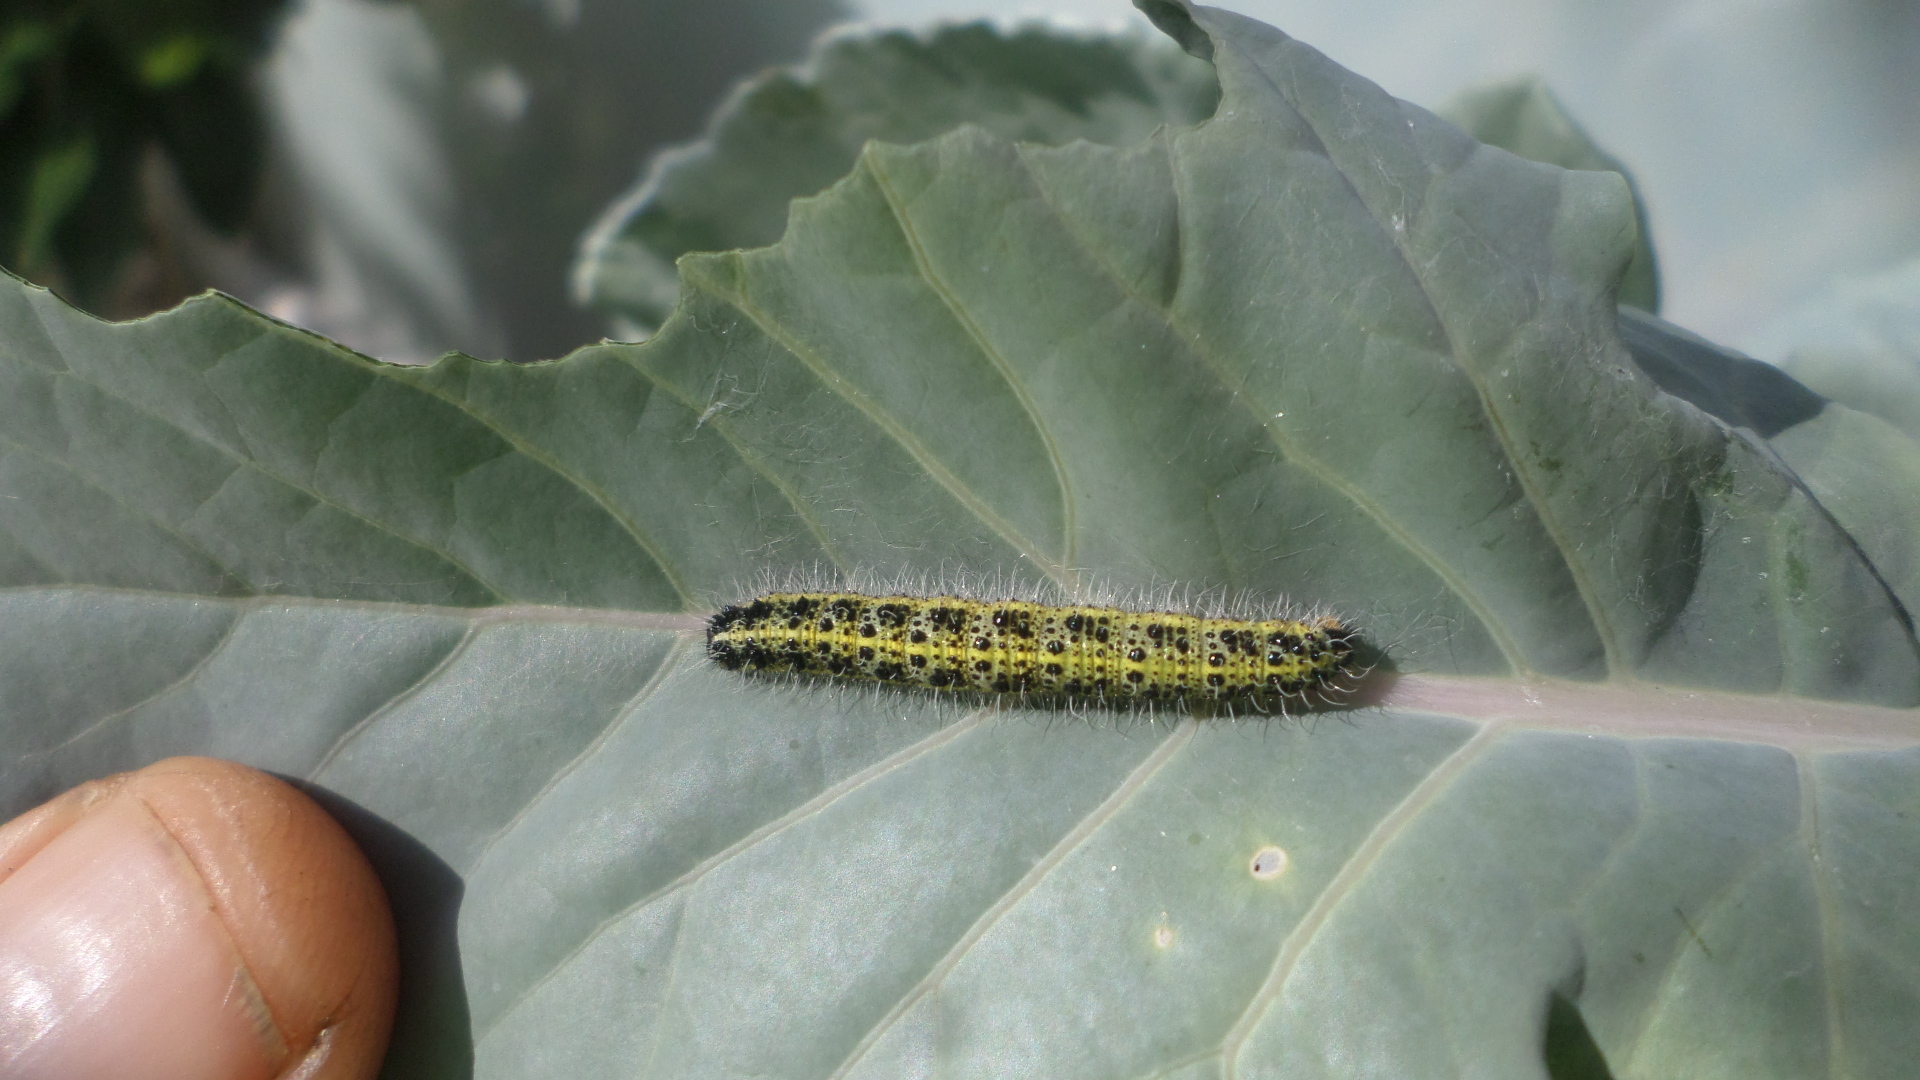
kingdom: Animalia
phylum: Arthropoda
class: Insecta
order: Lepidoptera
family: Pieridae
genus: Pieris
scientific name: Pieris brassicae
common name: Large white
